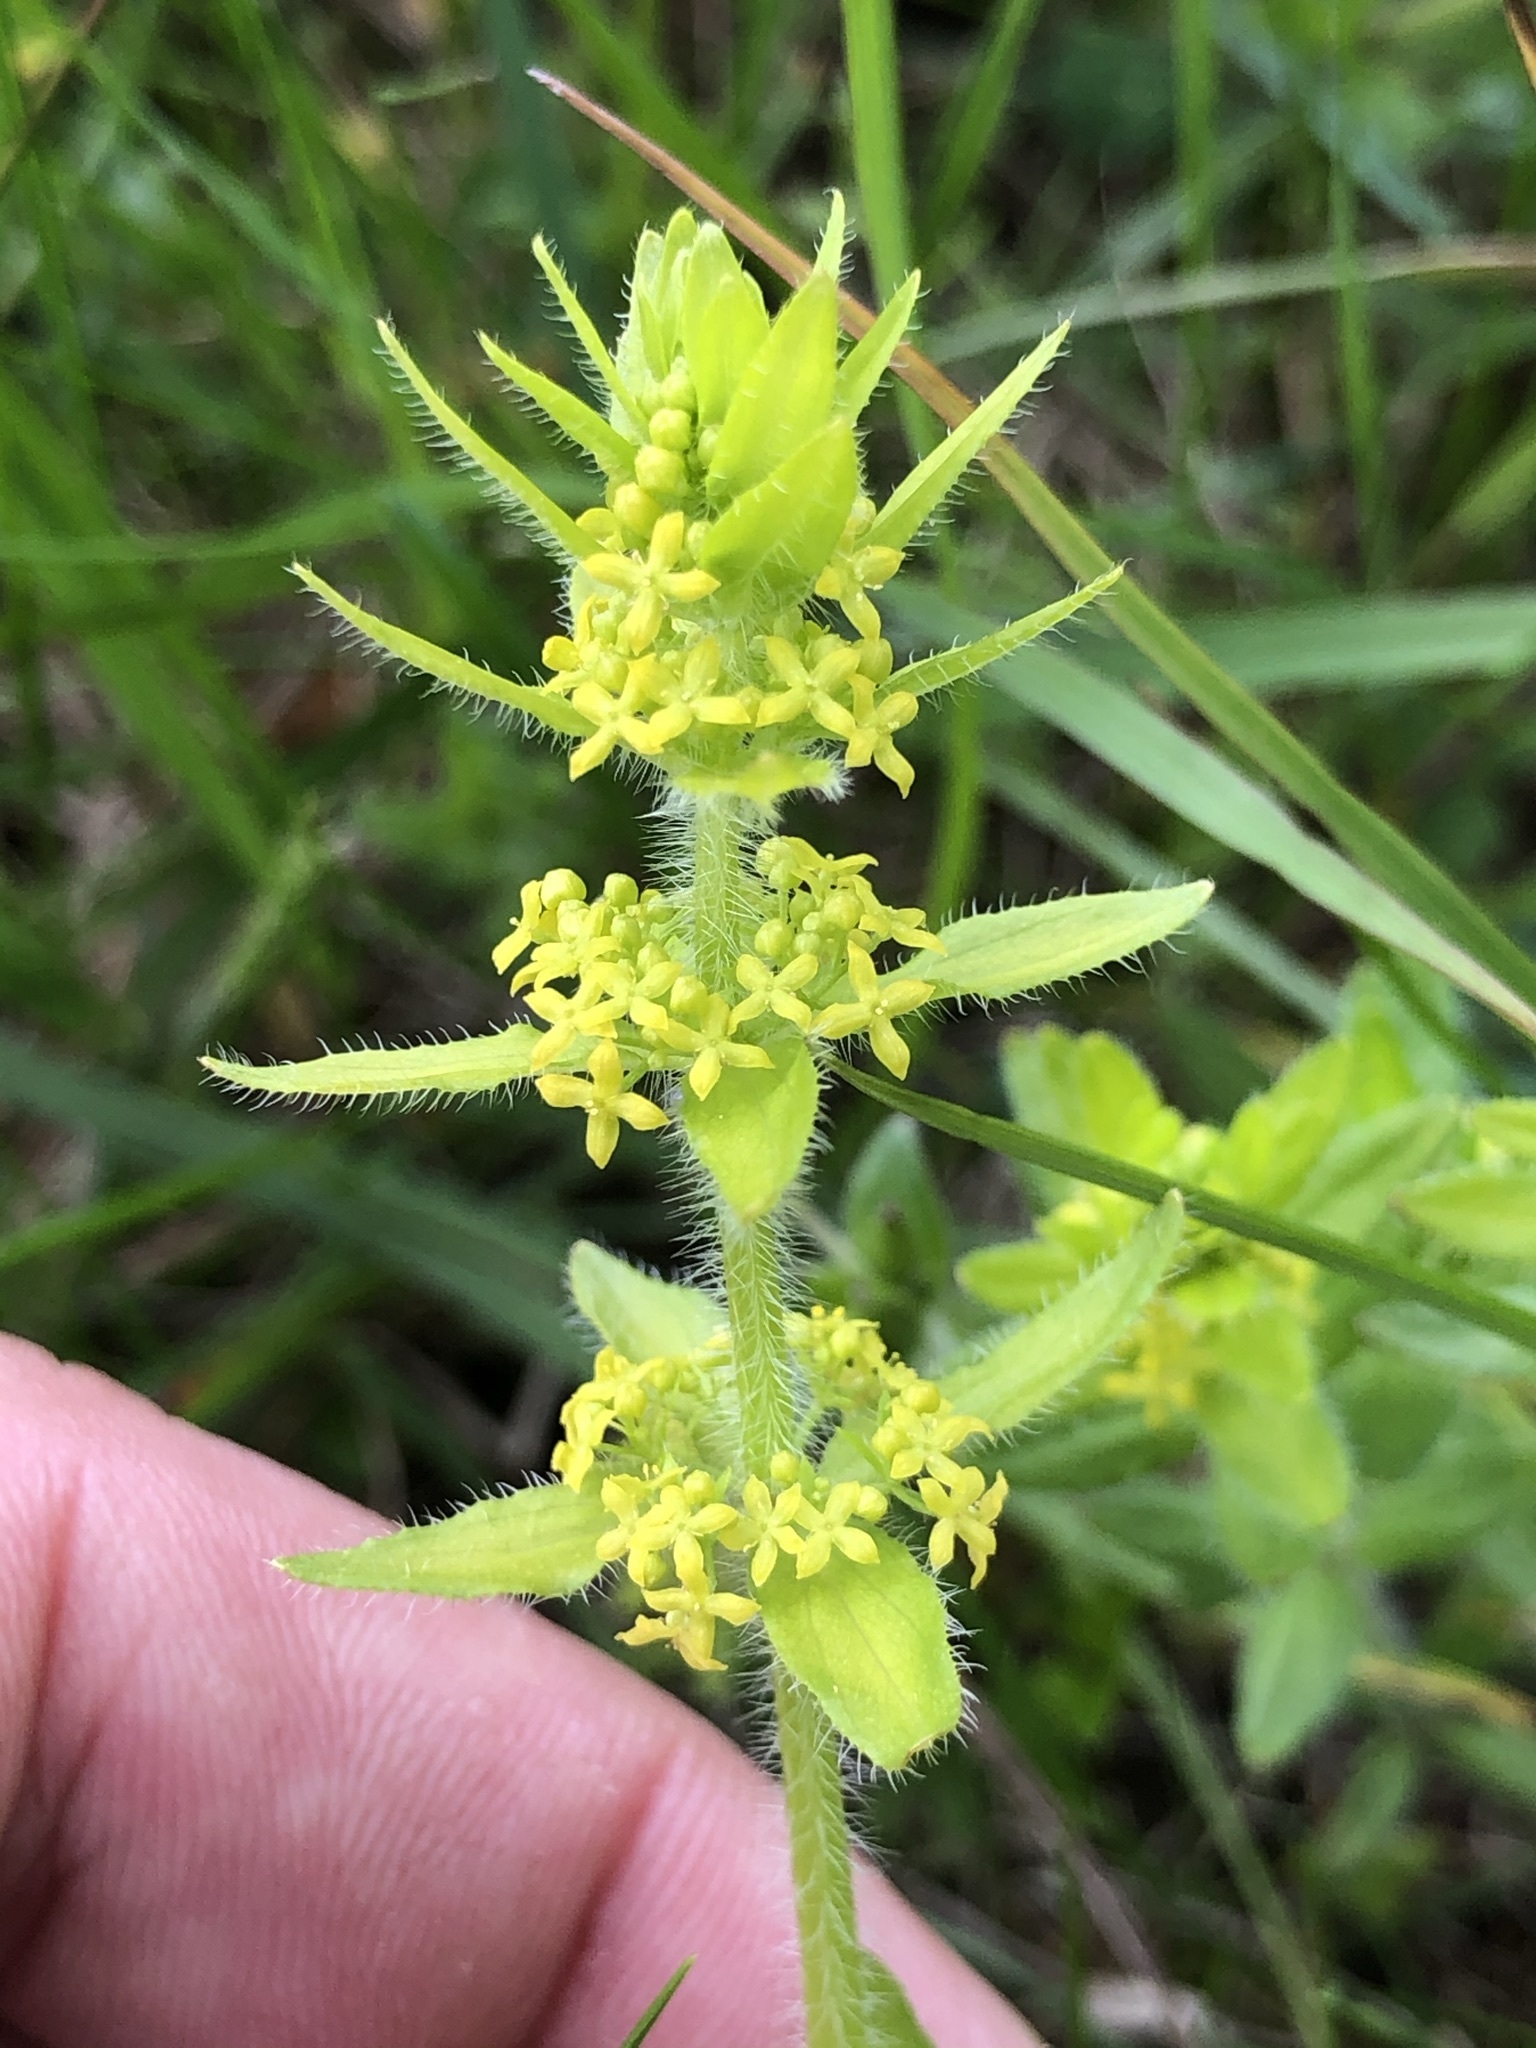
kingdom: Plantae
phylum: Tracheophyta
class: Magnoliopsida
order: Gentianales
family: Rubiaceae
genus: Cruciata
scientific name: Cruciata laevipes
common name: Crosswort
